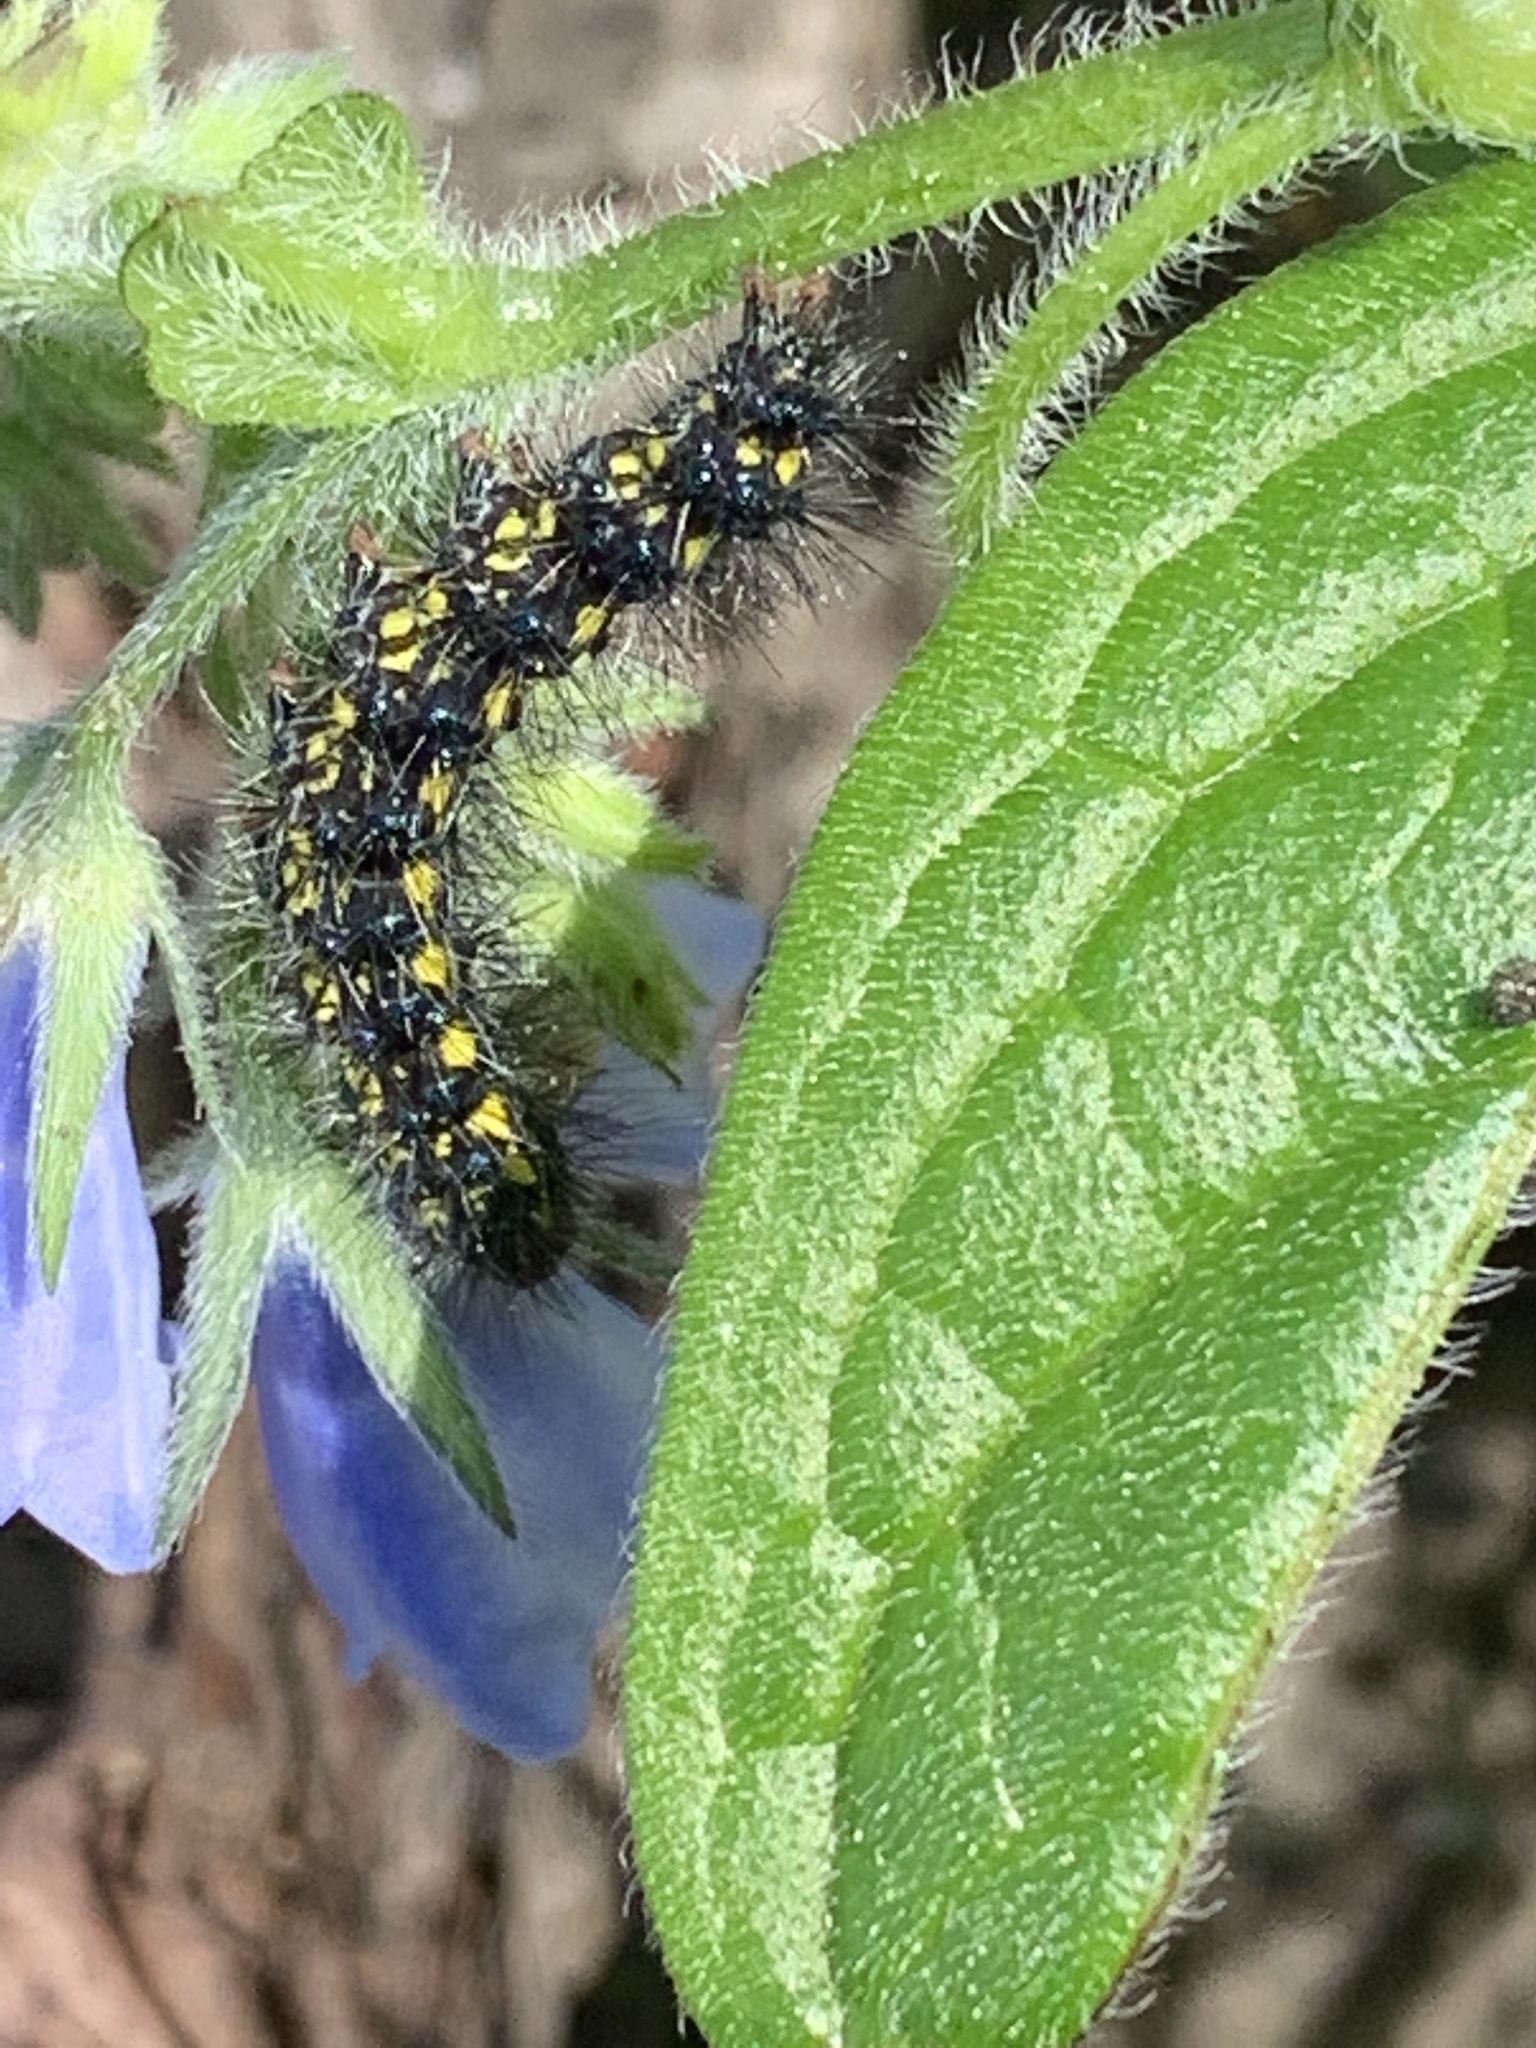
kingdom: Animalia
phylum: Arthropoda
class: Insecta
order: Lepidoptera
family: Erebidae
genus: Gnophaela
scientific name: Gnophaela vermiculata
